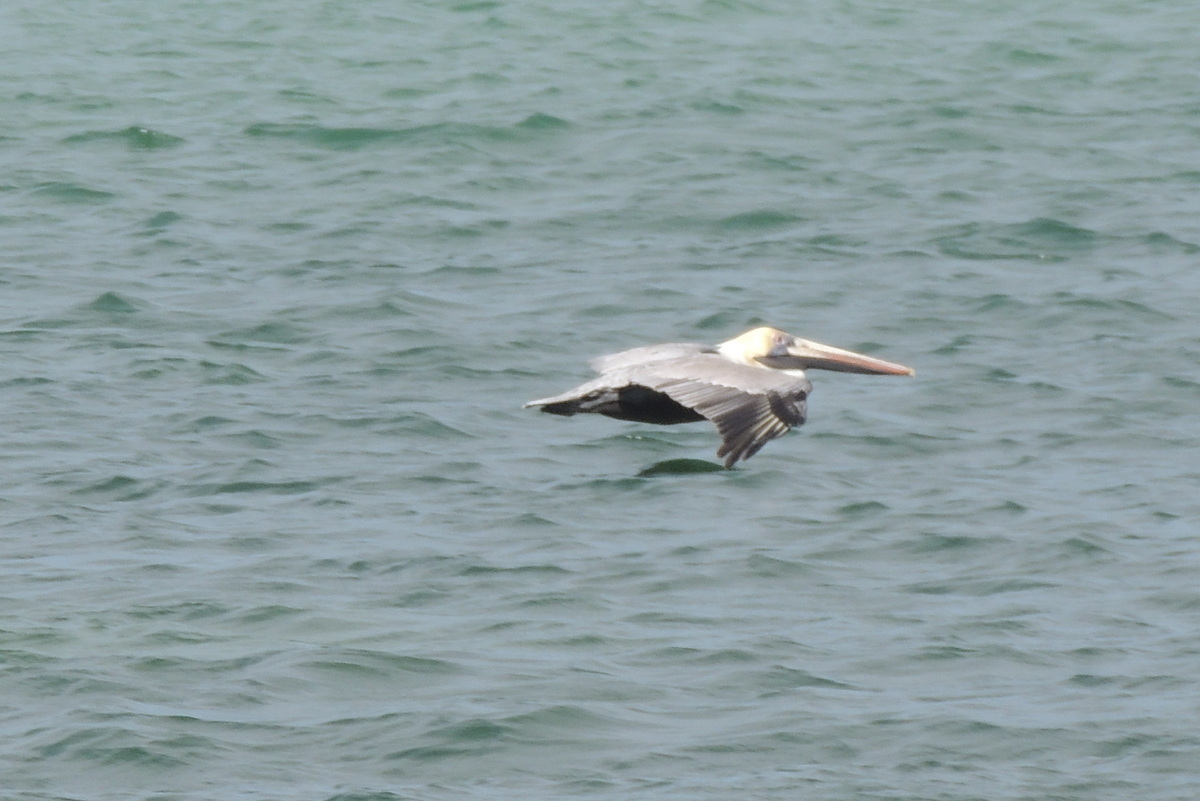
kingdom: Animalia
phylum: Chordata
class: Aves
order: Pelecaniformes
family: Pelecanidae
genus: Pelecanus
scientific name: Pelecanus occidentalis
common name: Brown pelican
